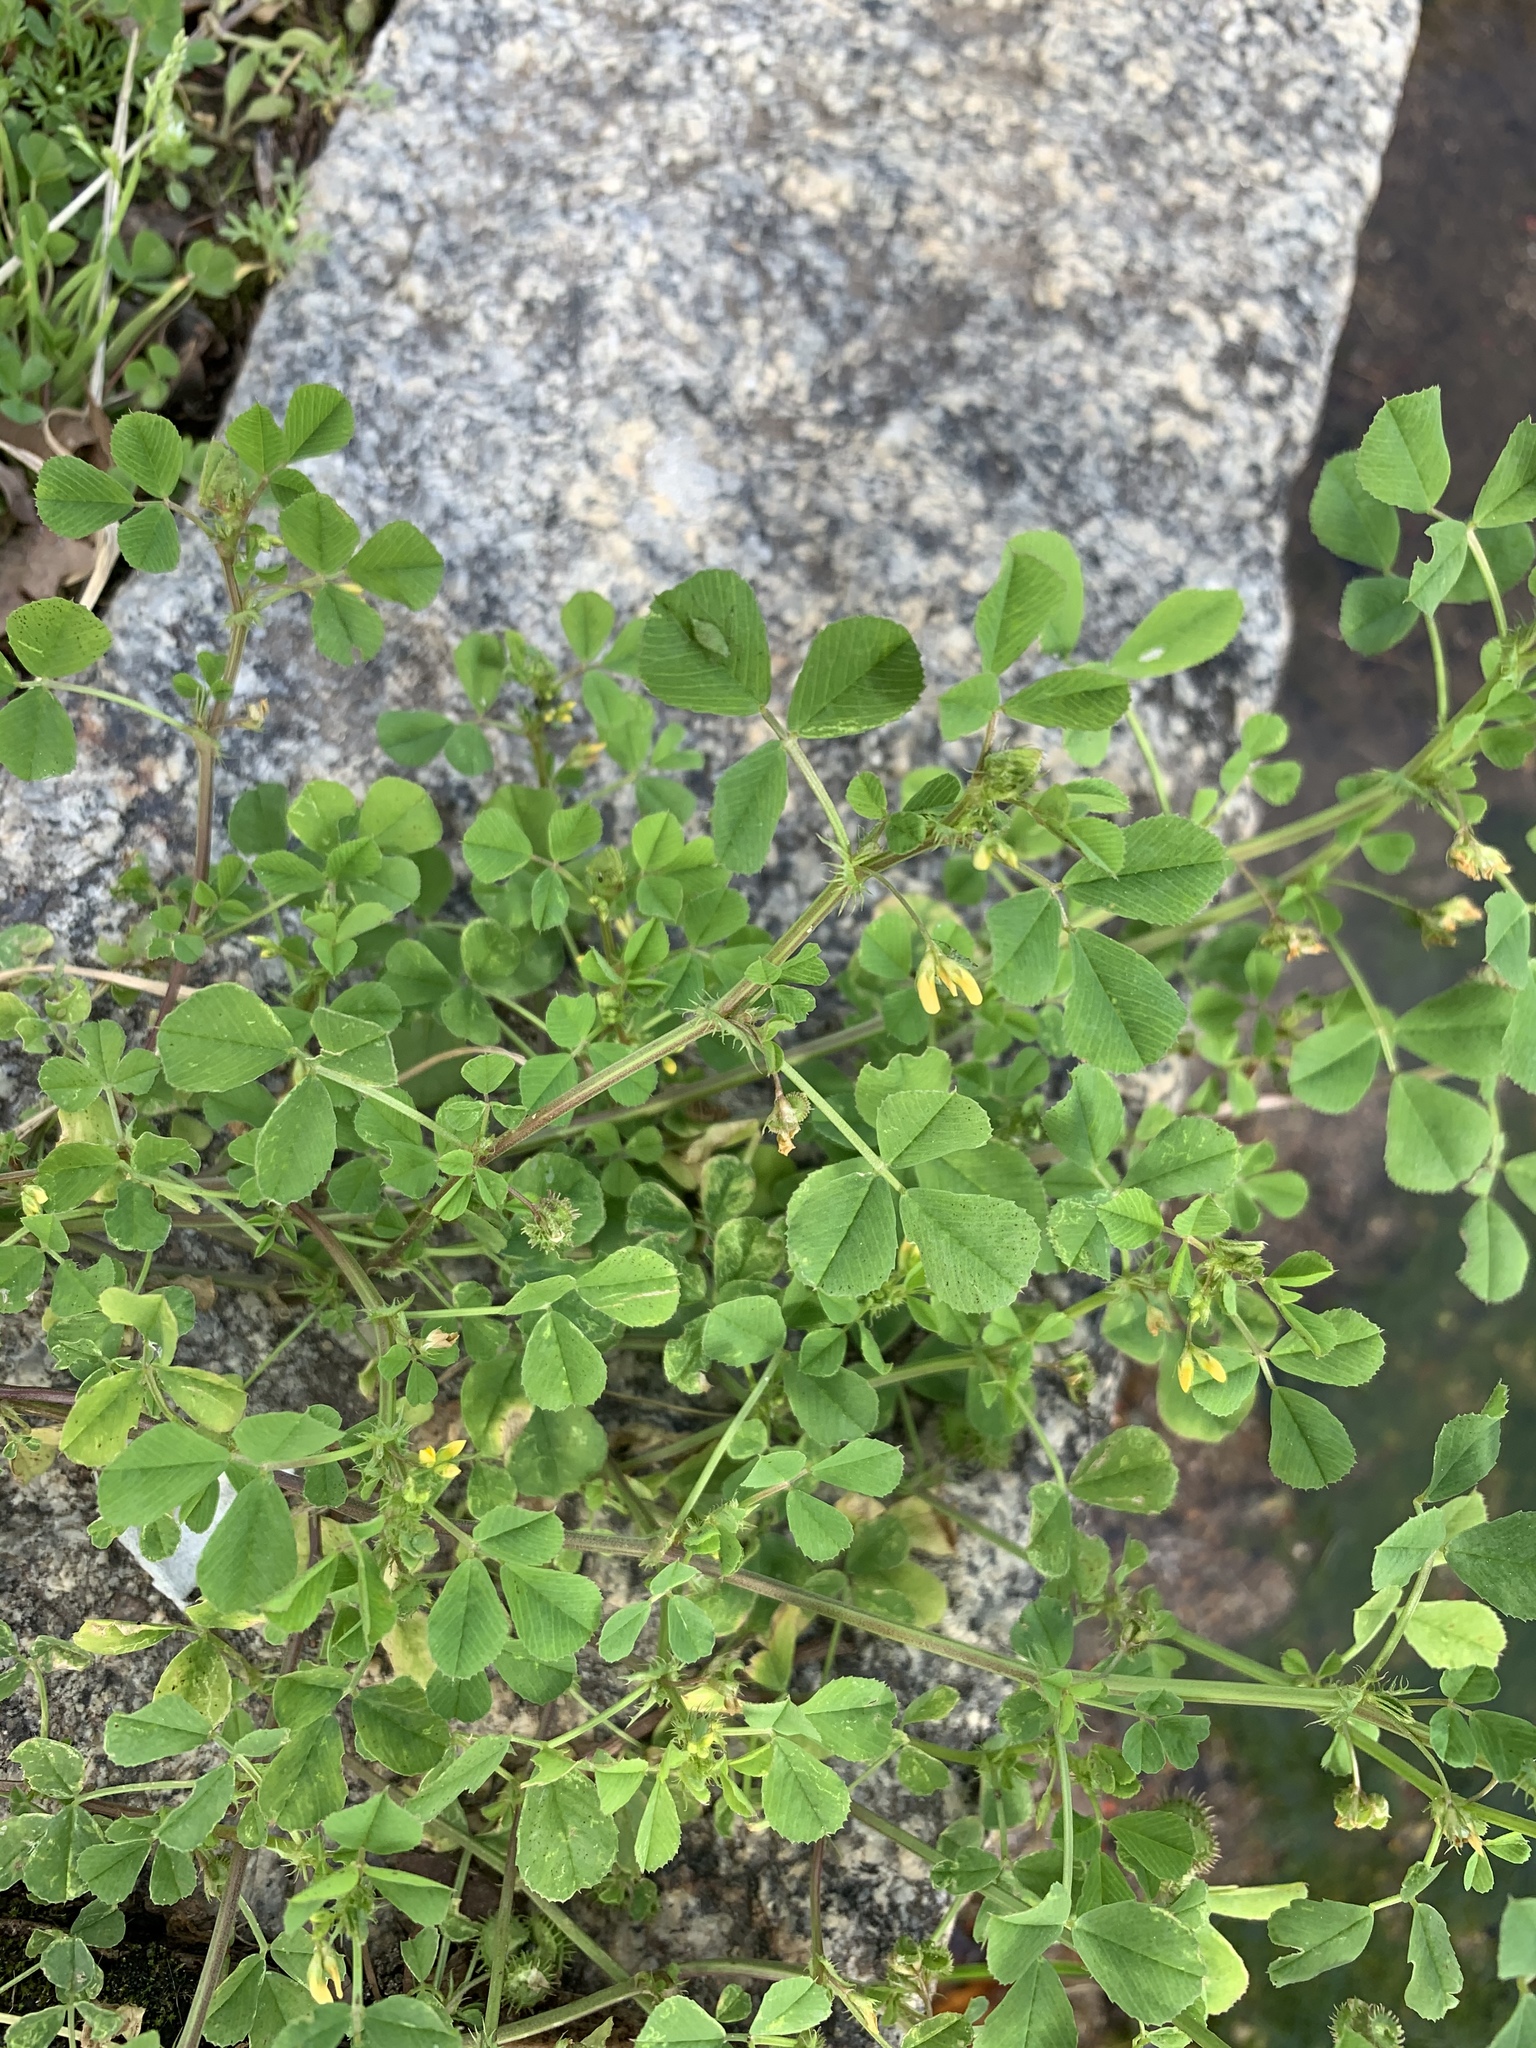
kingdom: Plantae
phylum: Tracheophyta
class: Magnoliopsida
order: Fabales
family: Fabaceae
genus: Medicago
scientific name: Medicago polymorpha
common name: Burclover
